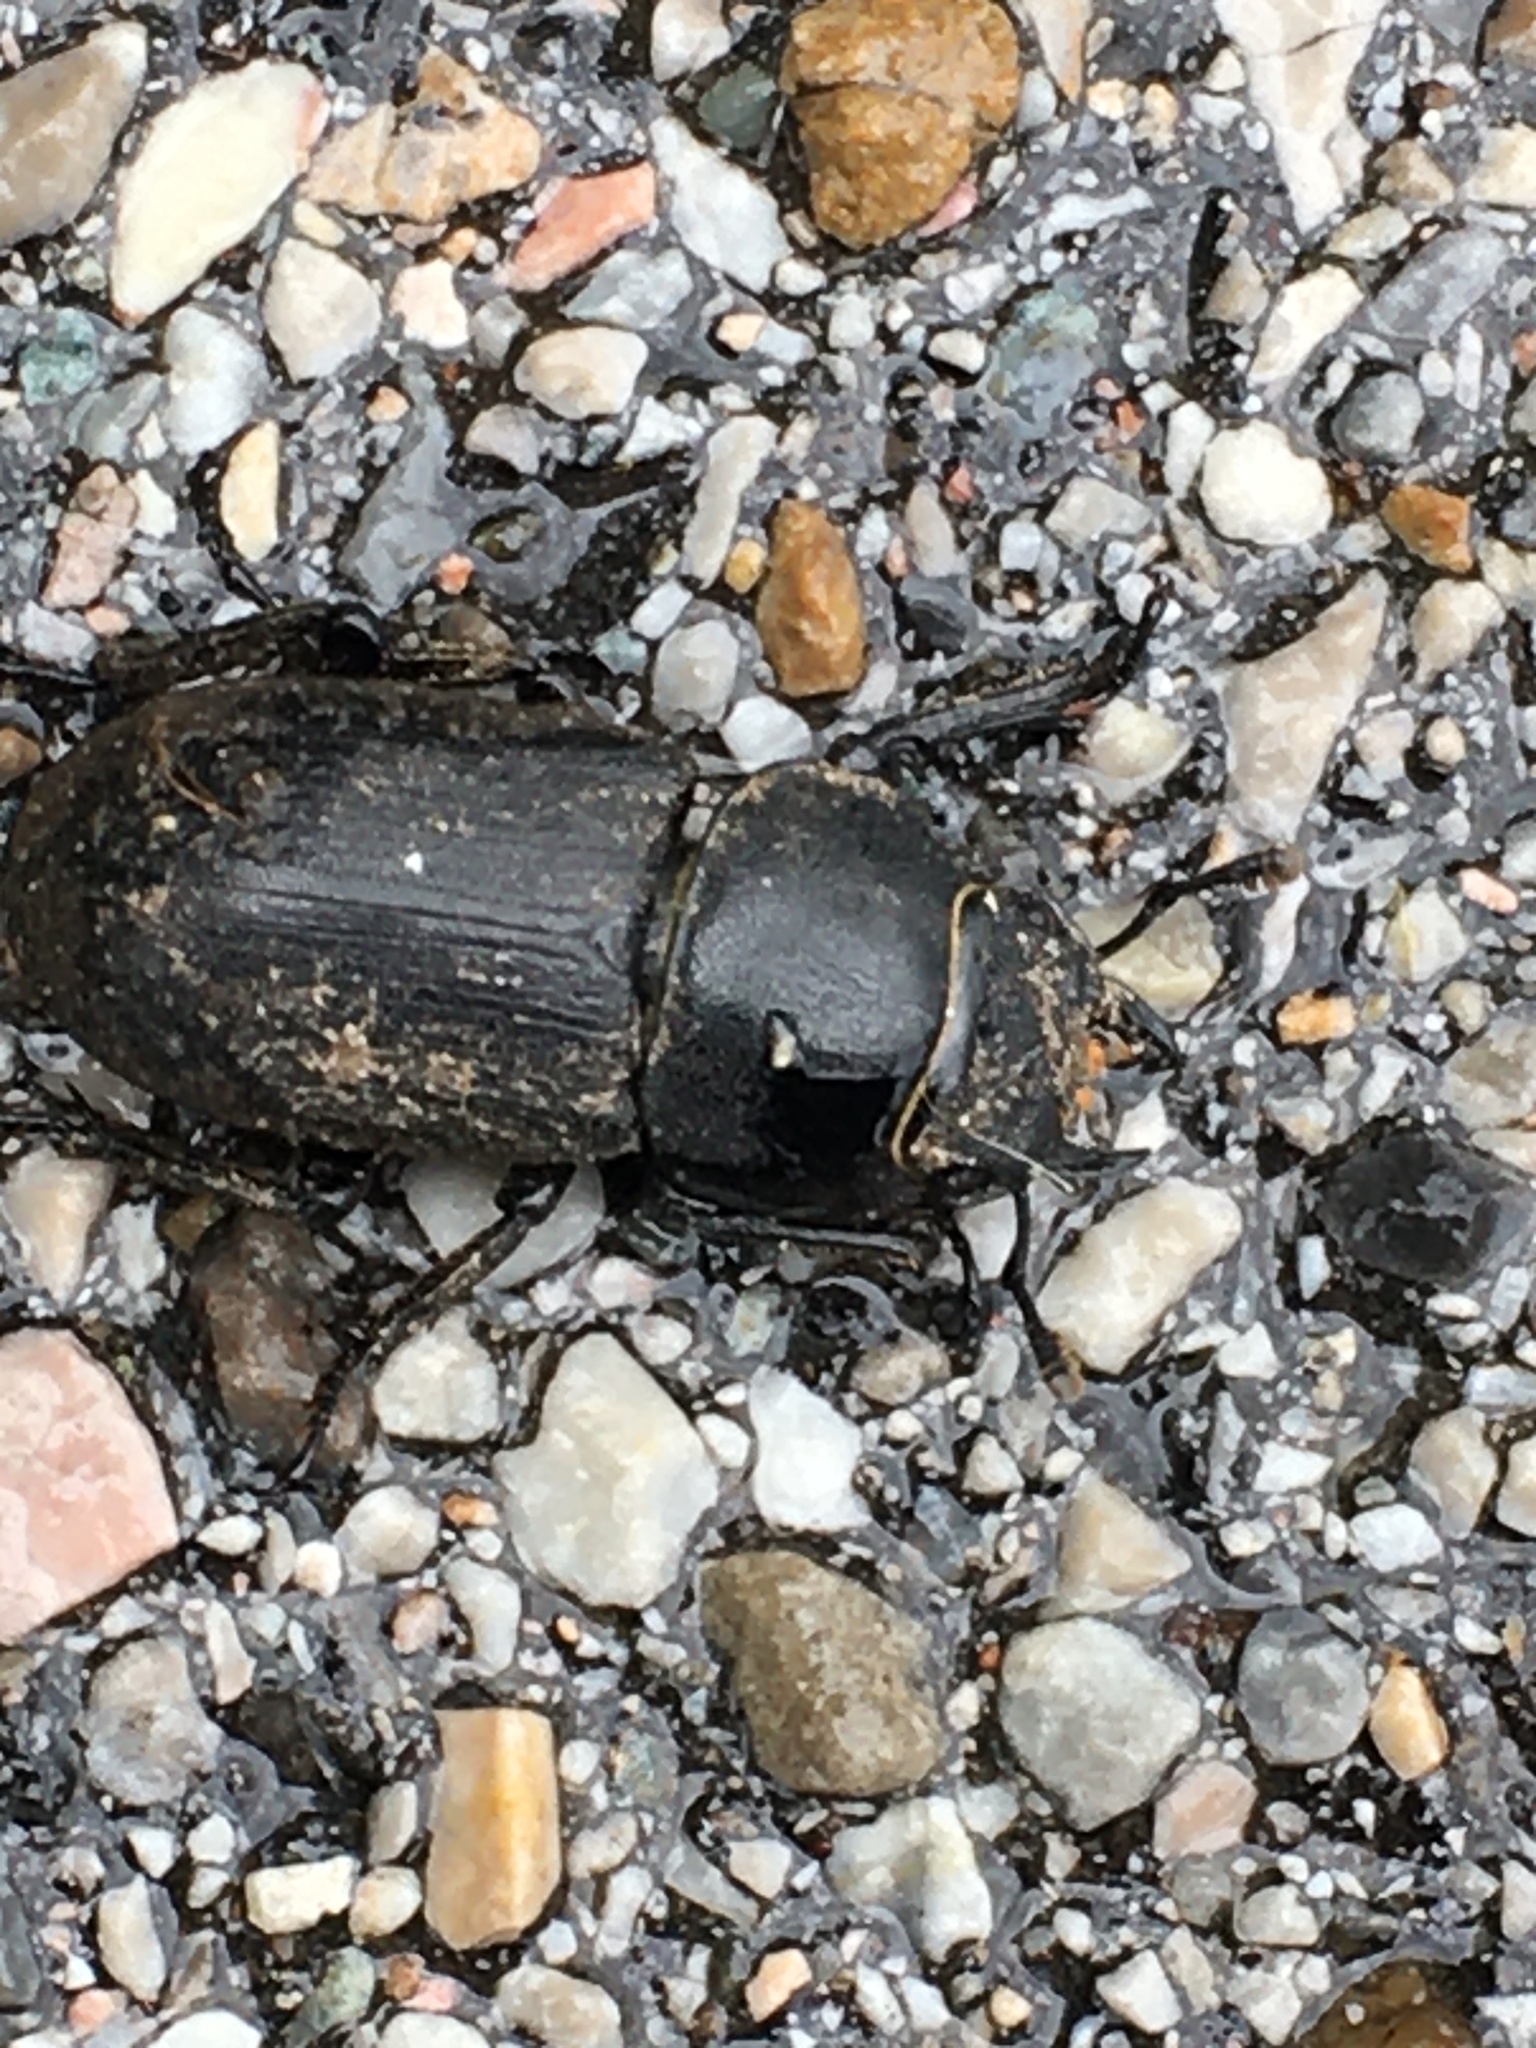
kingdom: Animalia
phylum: Arthropoda
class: Insecta
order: Coleoptera
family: Lucanidae
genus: Dorcus
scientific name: Dorcus parallelipipedus
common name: Lesser stag beetle
